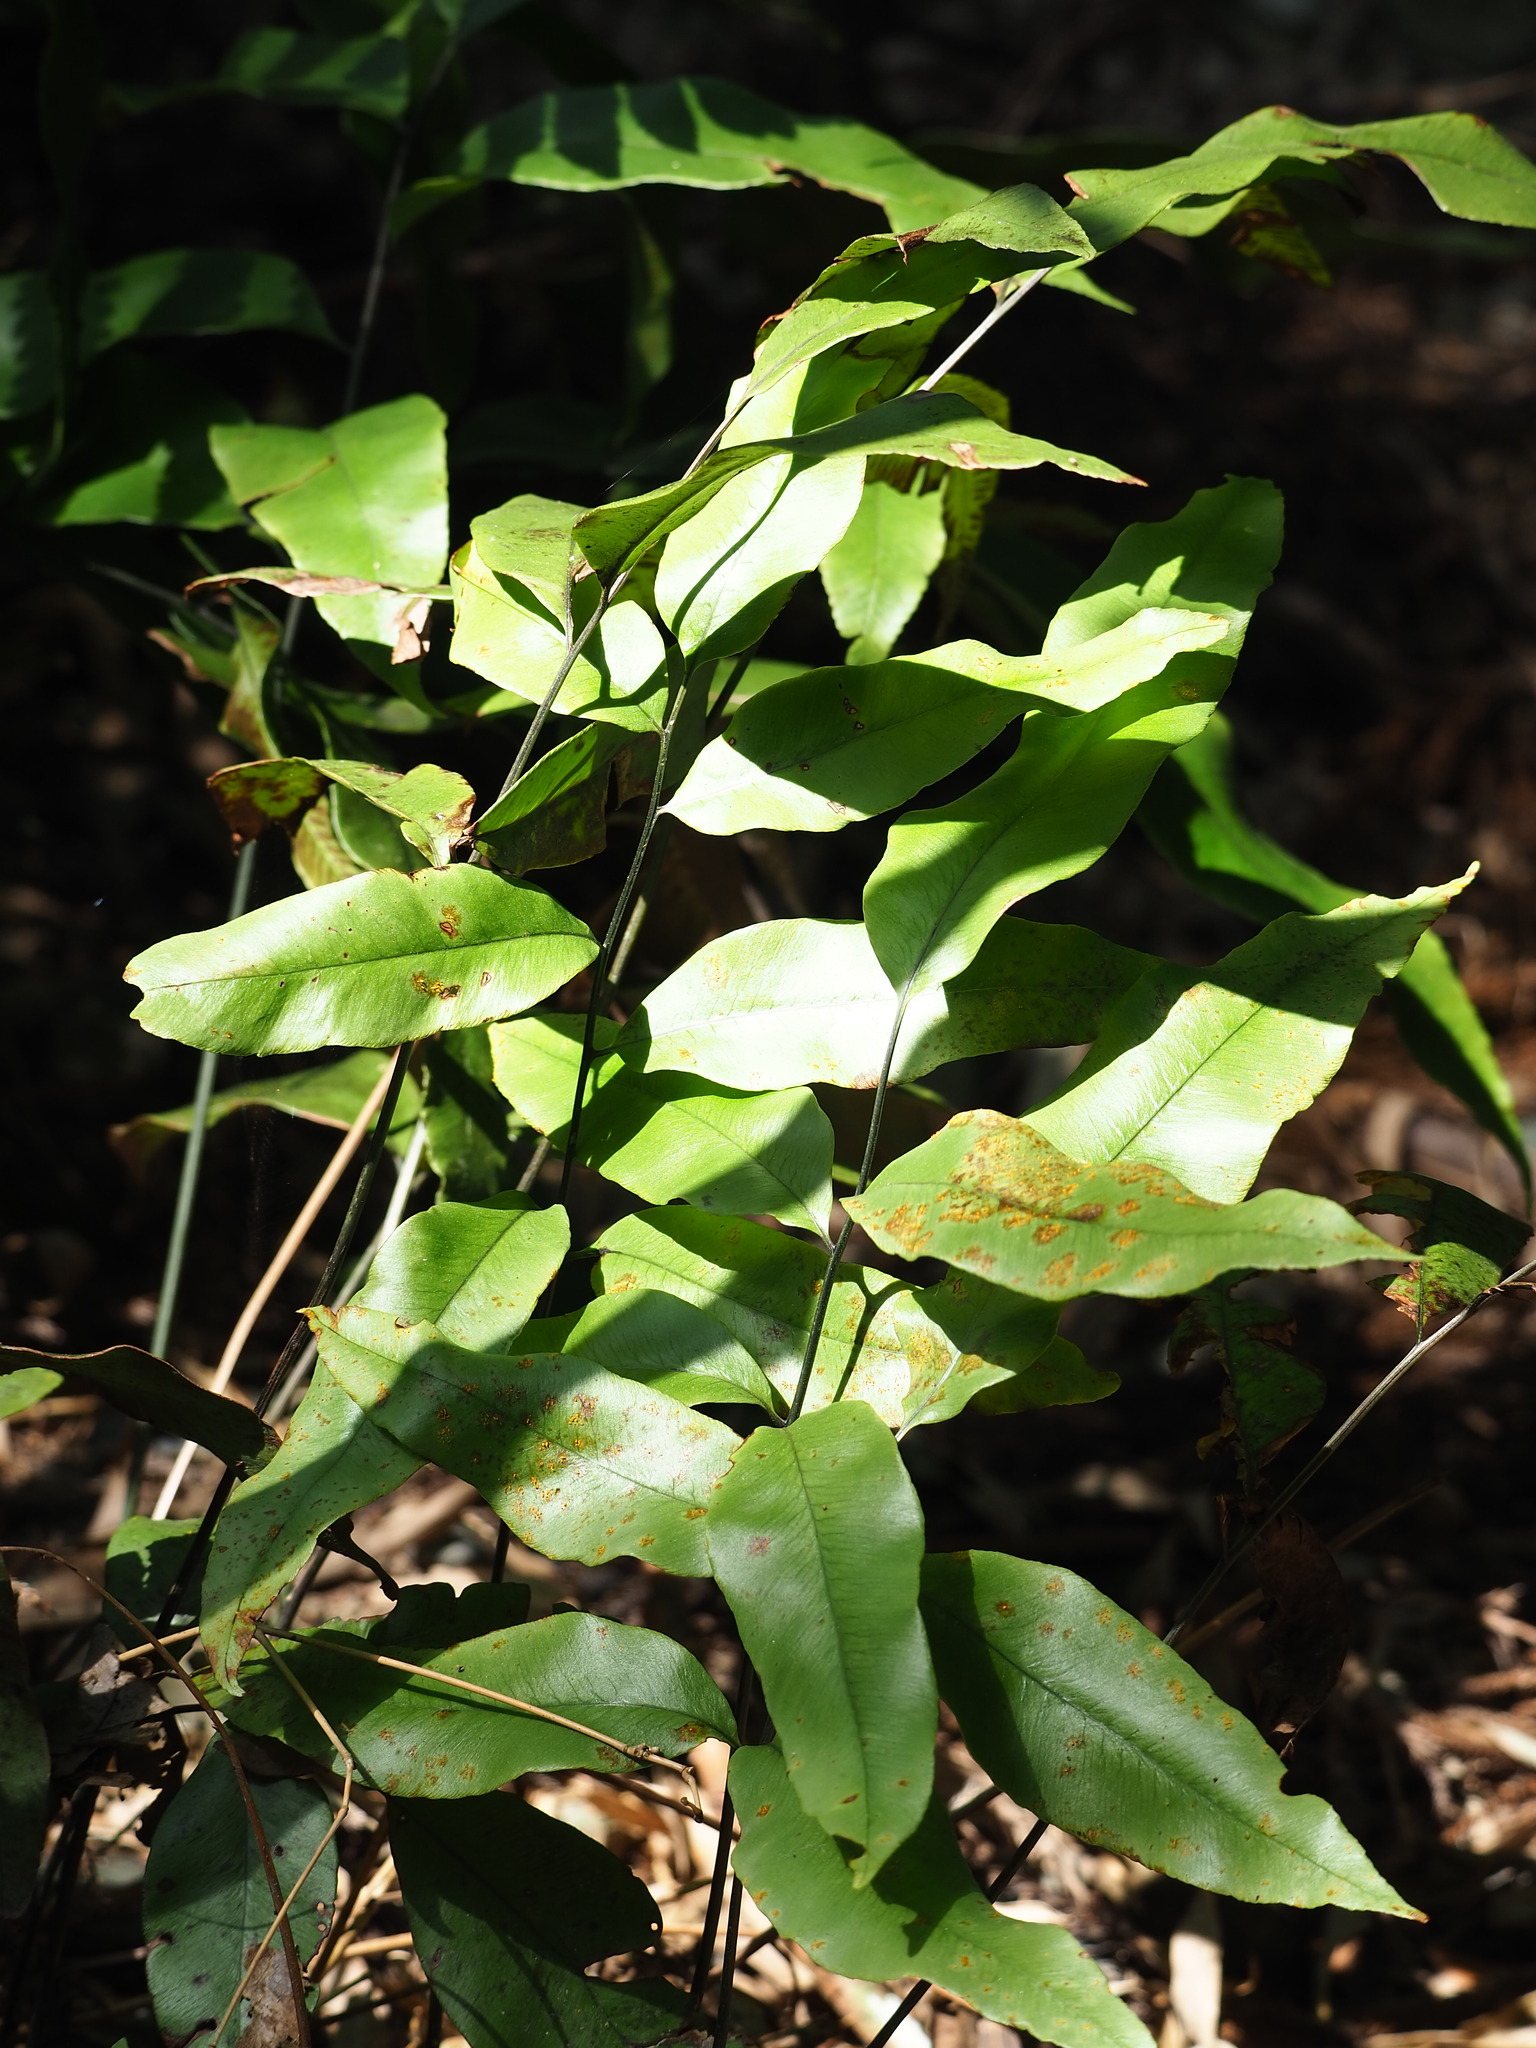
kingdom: Plantae
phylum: Tracheophyta
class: Polypodiopsida
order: Polypodiales
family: Athyriaceae
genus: Diplazium
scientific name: Diplazium lineolatum
